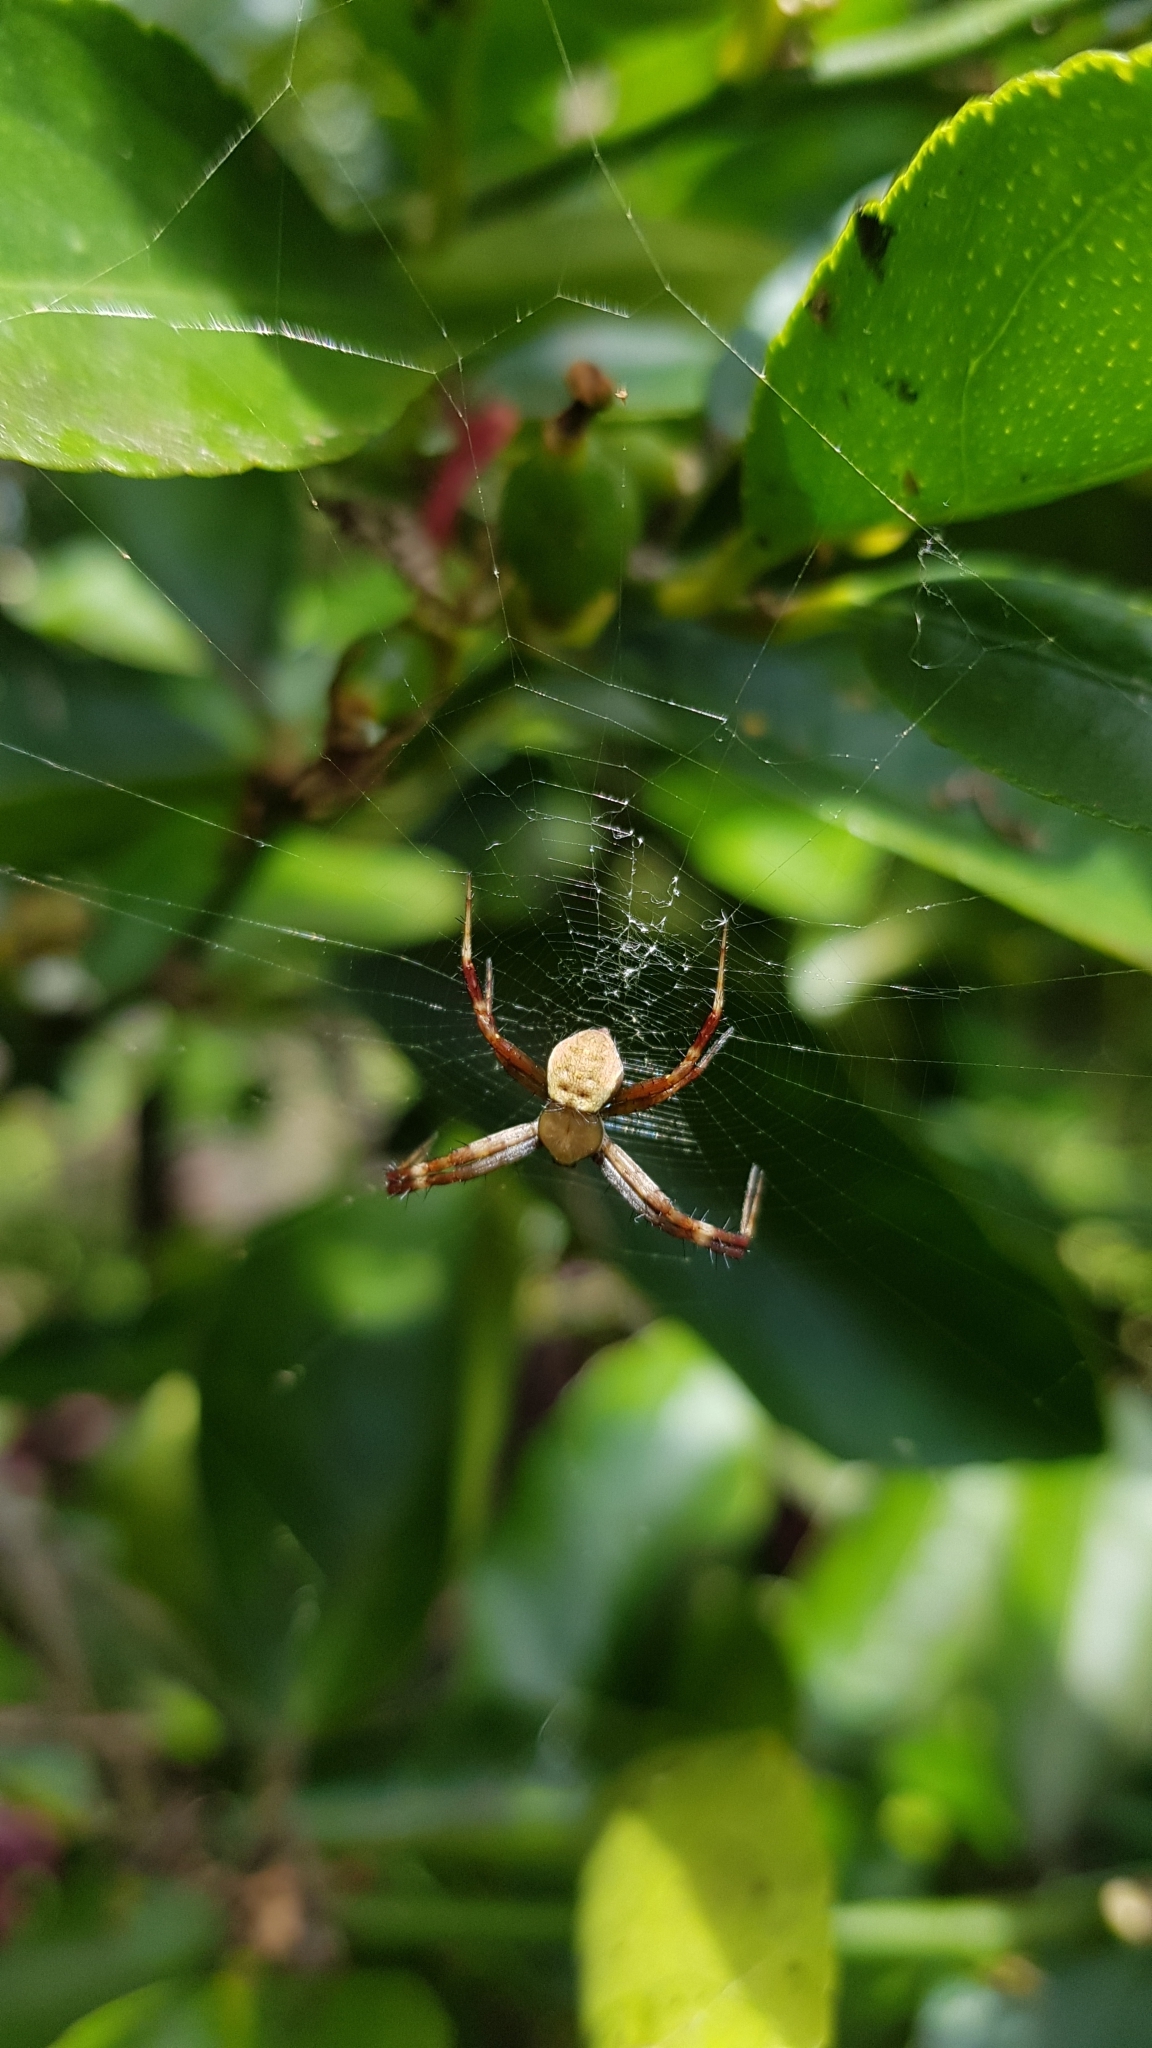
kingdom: Animalia
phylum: Arthropoda
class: Arachnida
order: Araneae
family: Araneidae
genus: Argiope
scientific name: Argiope keyserlingi
